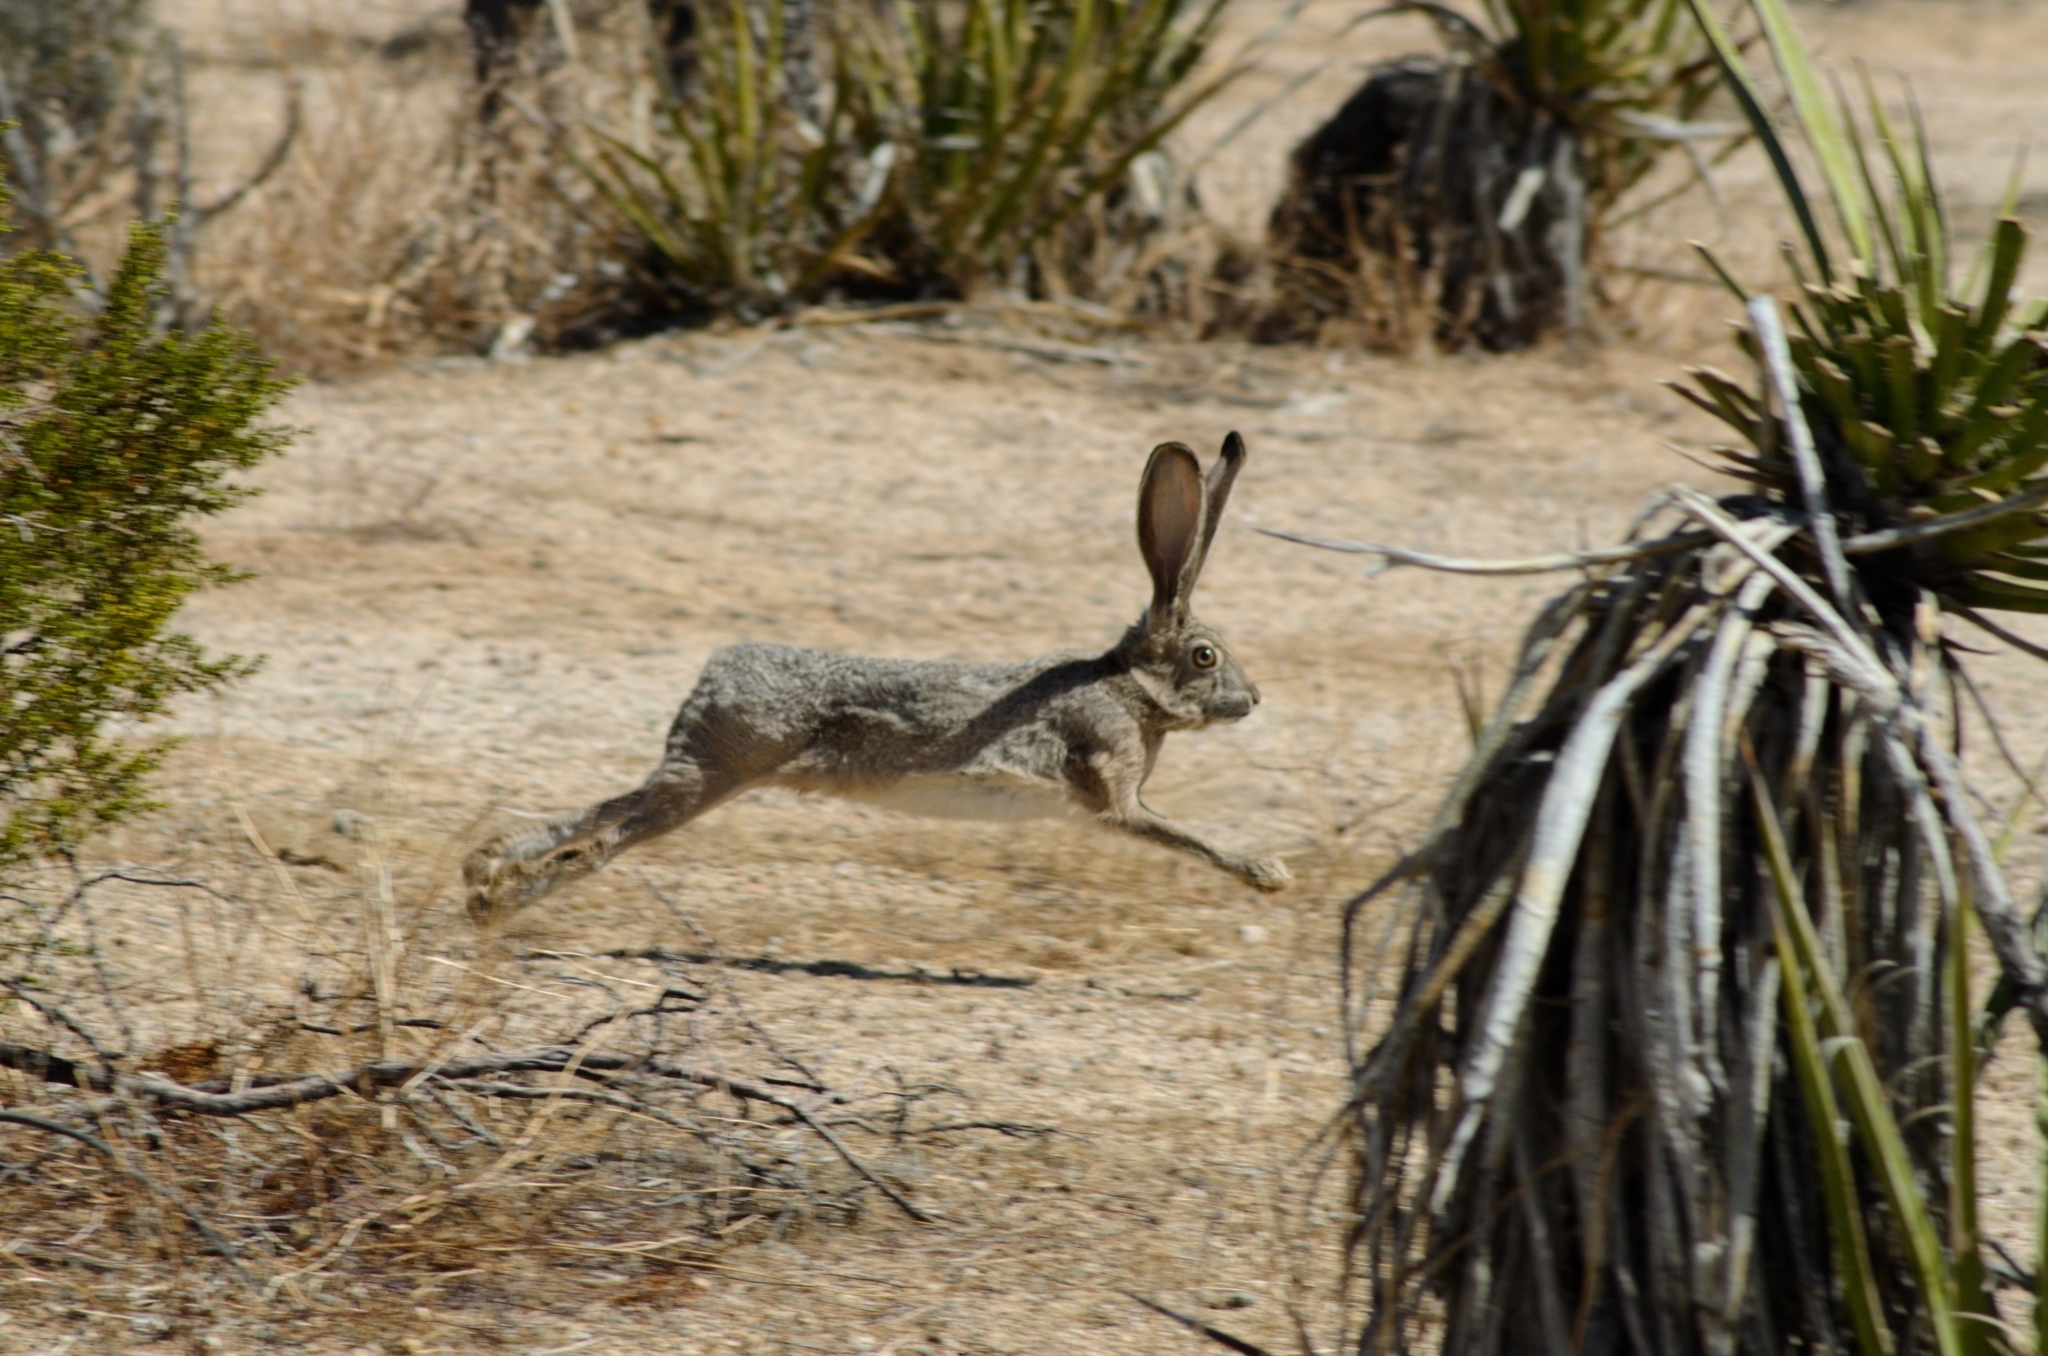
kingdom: Animalia
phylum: Chordata
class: Mammalia
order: Lagomorpha
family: Leporidae
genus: Lepus
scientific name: Lepus californicus
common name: Black-tailed jackrabbit
